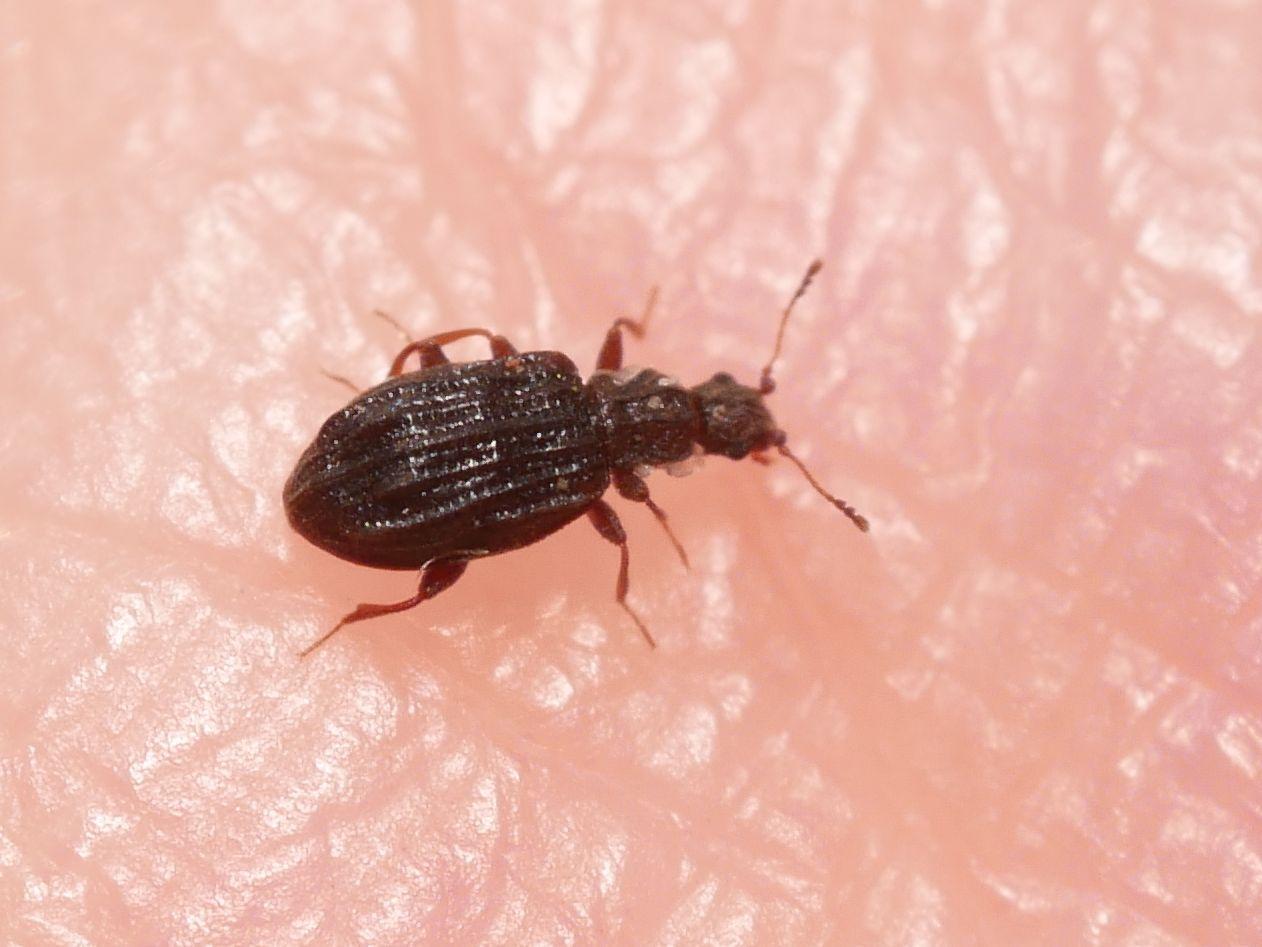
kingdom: Animalia
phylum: Arthropoda
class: Insecta
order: Coleoptera
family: Latridiidae
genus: Cartodere
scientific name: Cartodere nodifer
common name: Humpbacked minute scavenger beetle
